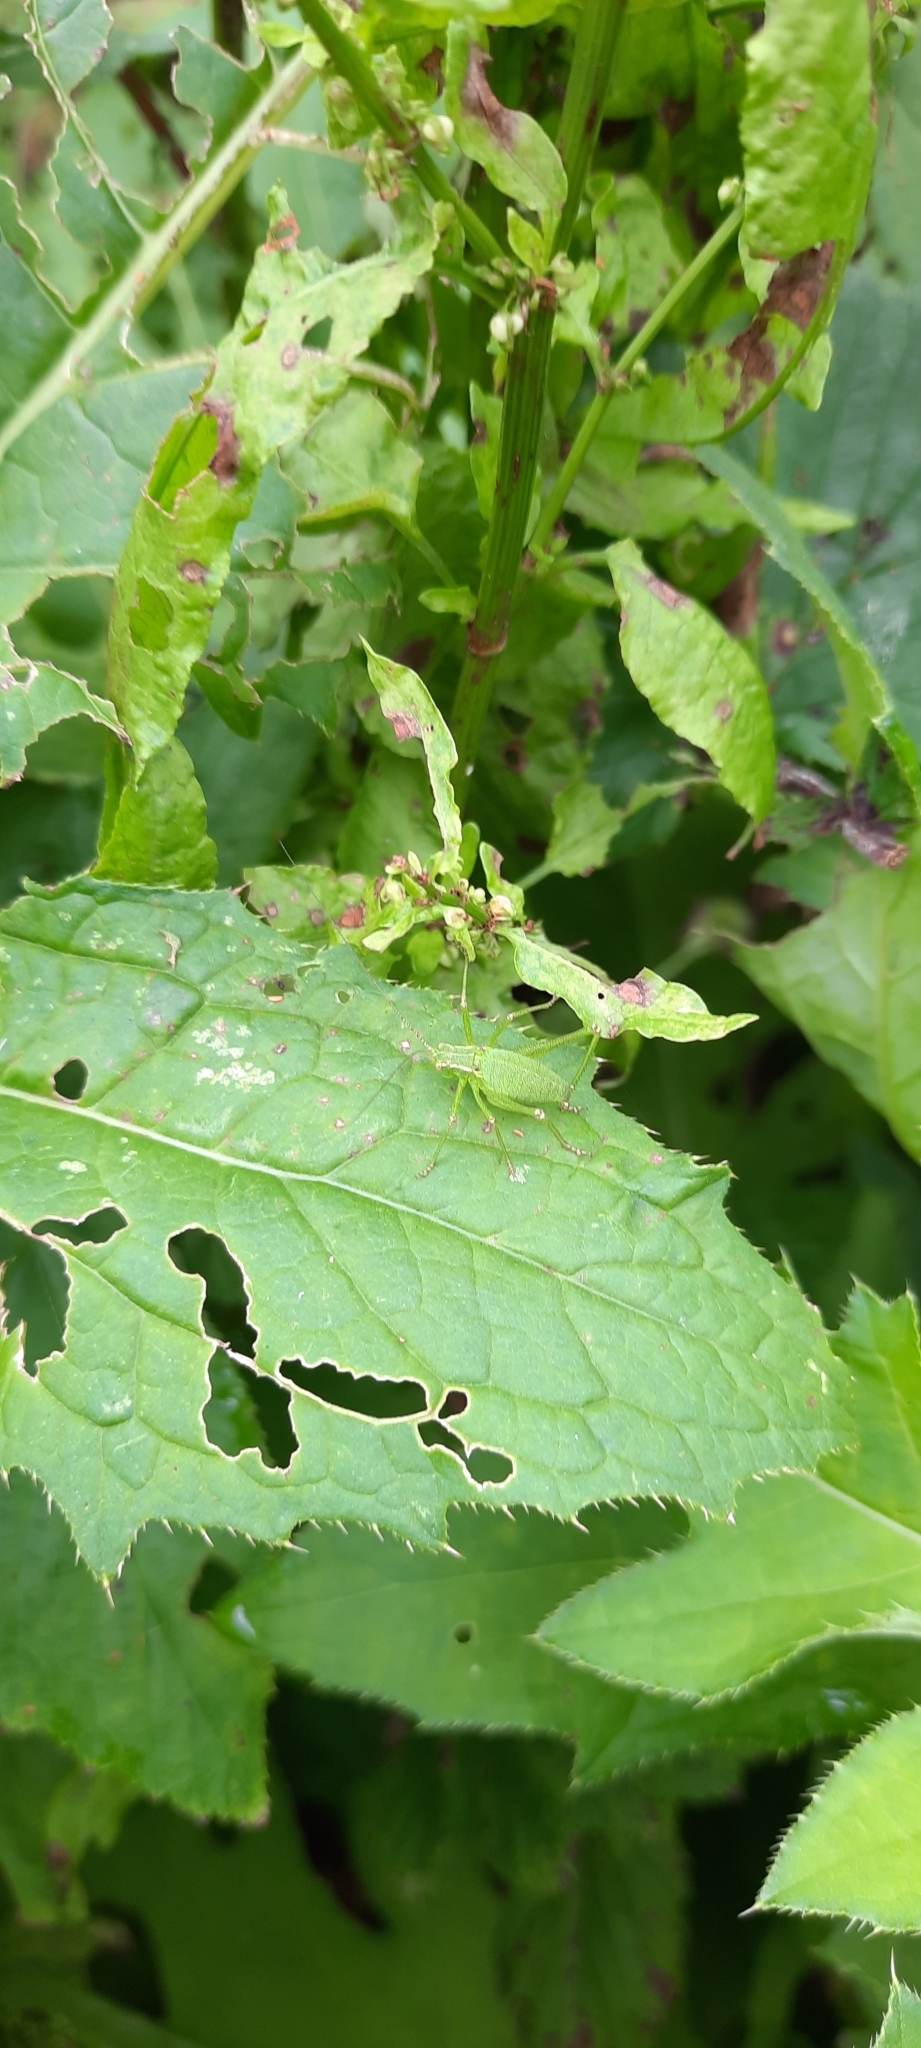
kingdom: Animalia
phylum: Arthropoda
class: Insecta
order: Orthoptera
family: Tettigoniidae
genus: Leptophyes
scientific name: Leptophyes punctatissima
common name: Speckled bush-cricket
